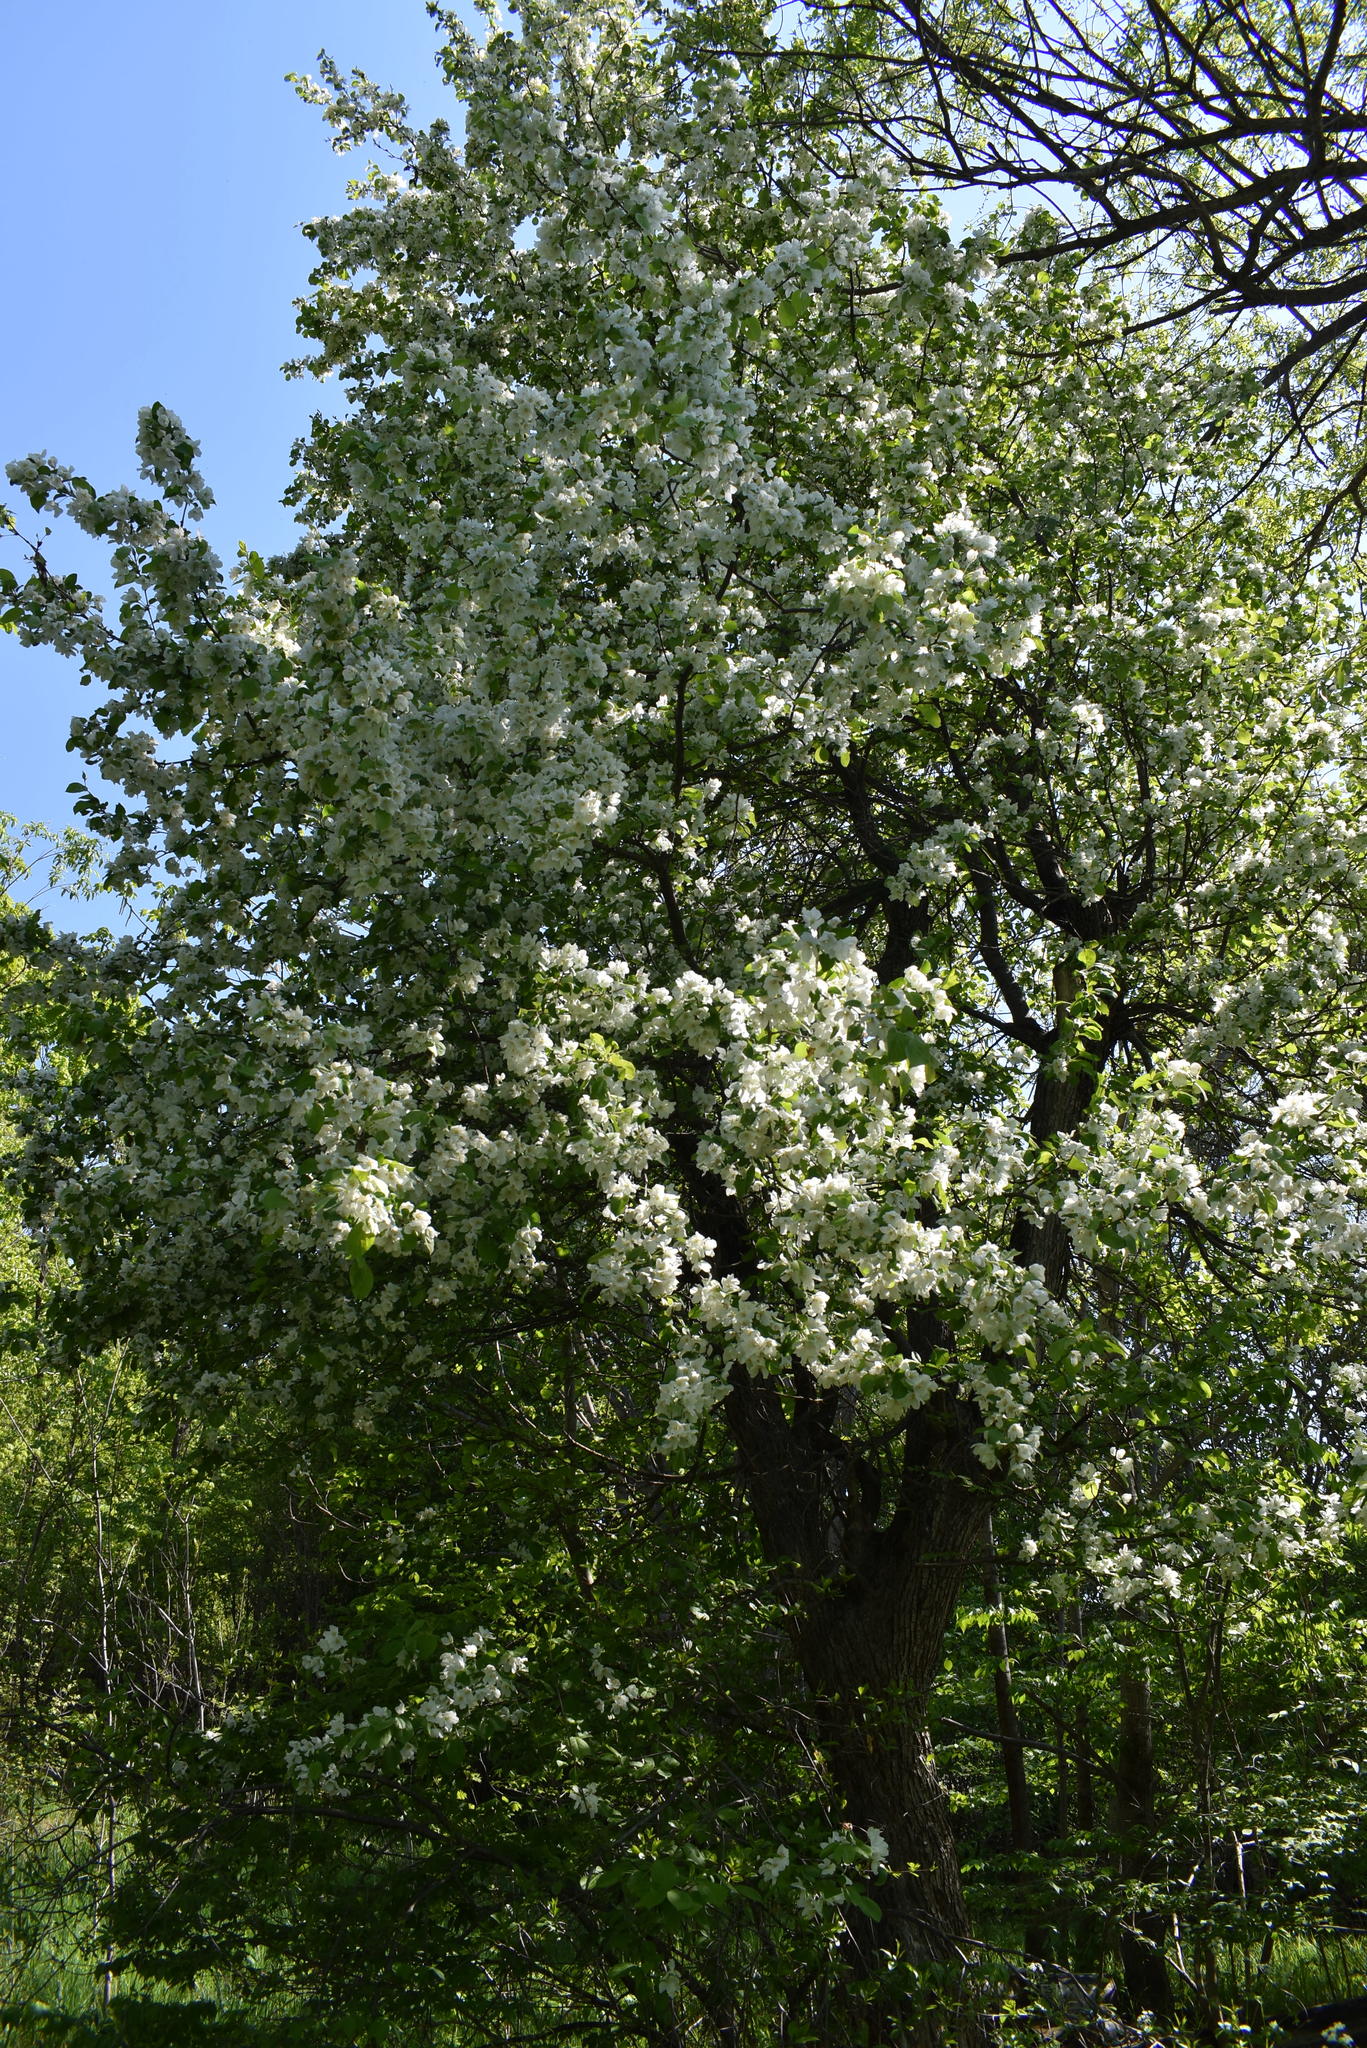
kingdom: Plantae
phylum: Tracheophyta
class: Magnoliopsida
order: Rosales
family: Rosaceae
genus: Malus
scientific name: Malus mandshurica
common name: Siberian crabapple
